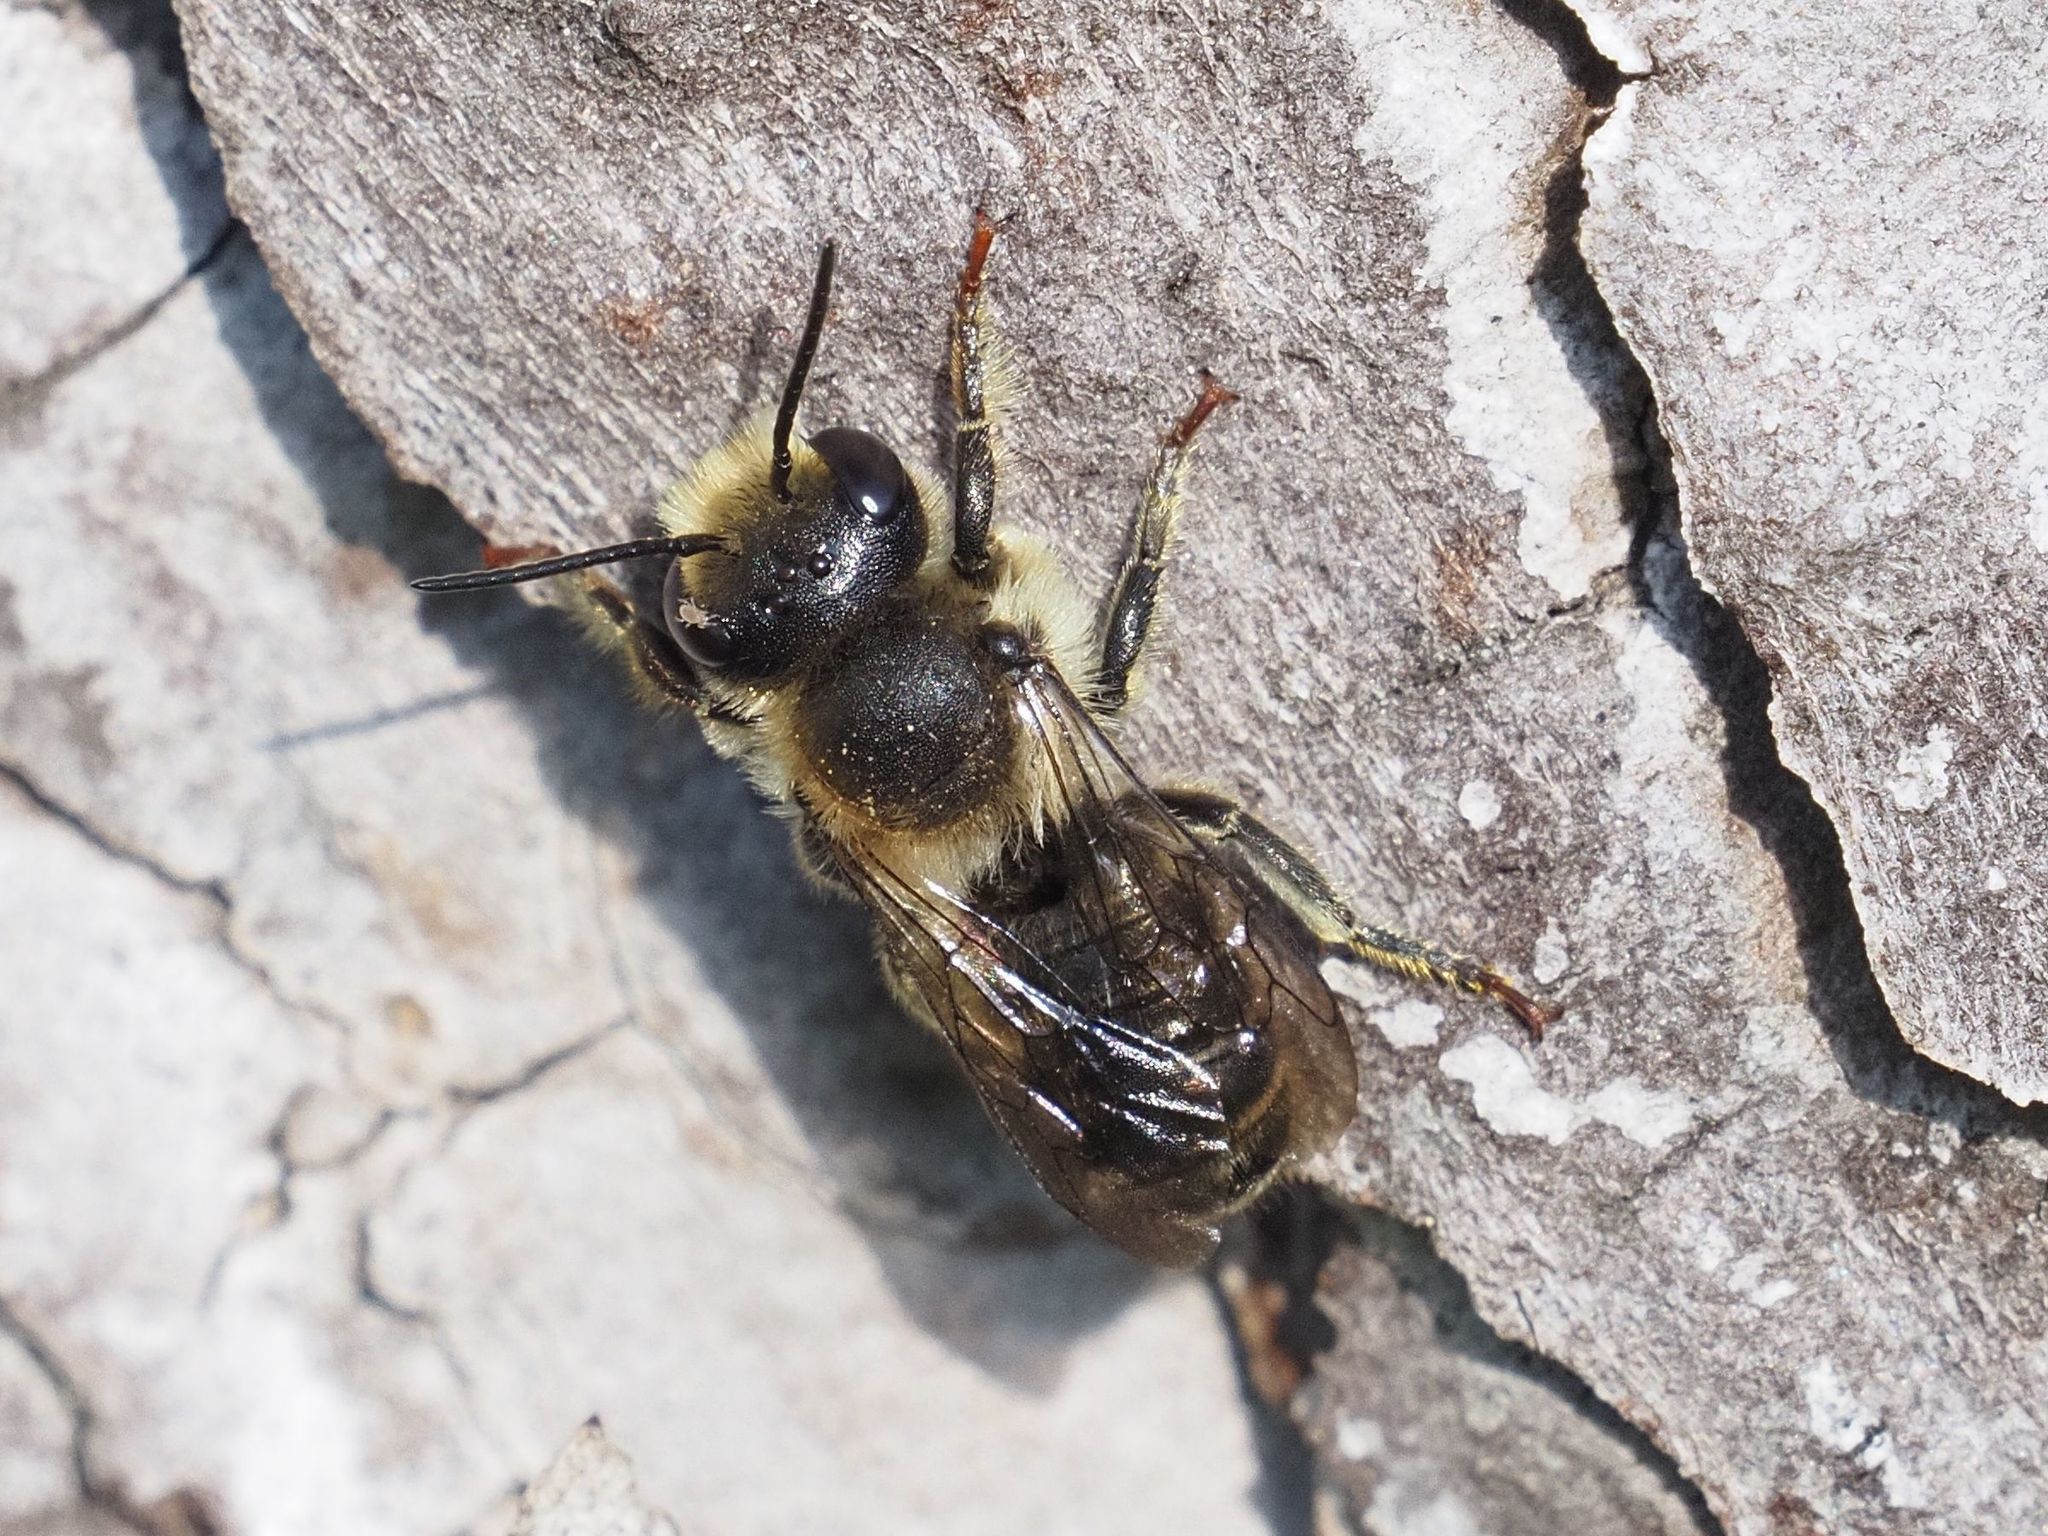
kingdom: Animalia
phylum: Arthropoda
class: Insecta
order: Hymenoptera
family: Megachilidae
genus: Megachile
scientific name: Megachile ericetorum
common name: Leafcutter bee
